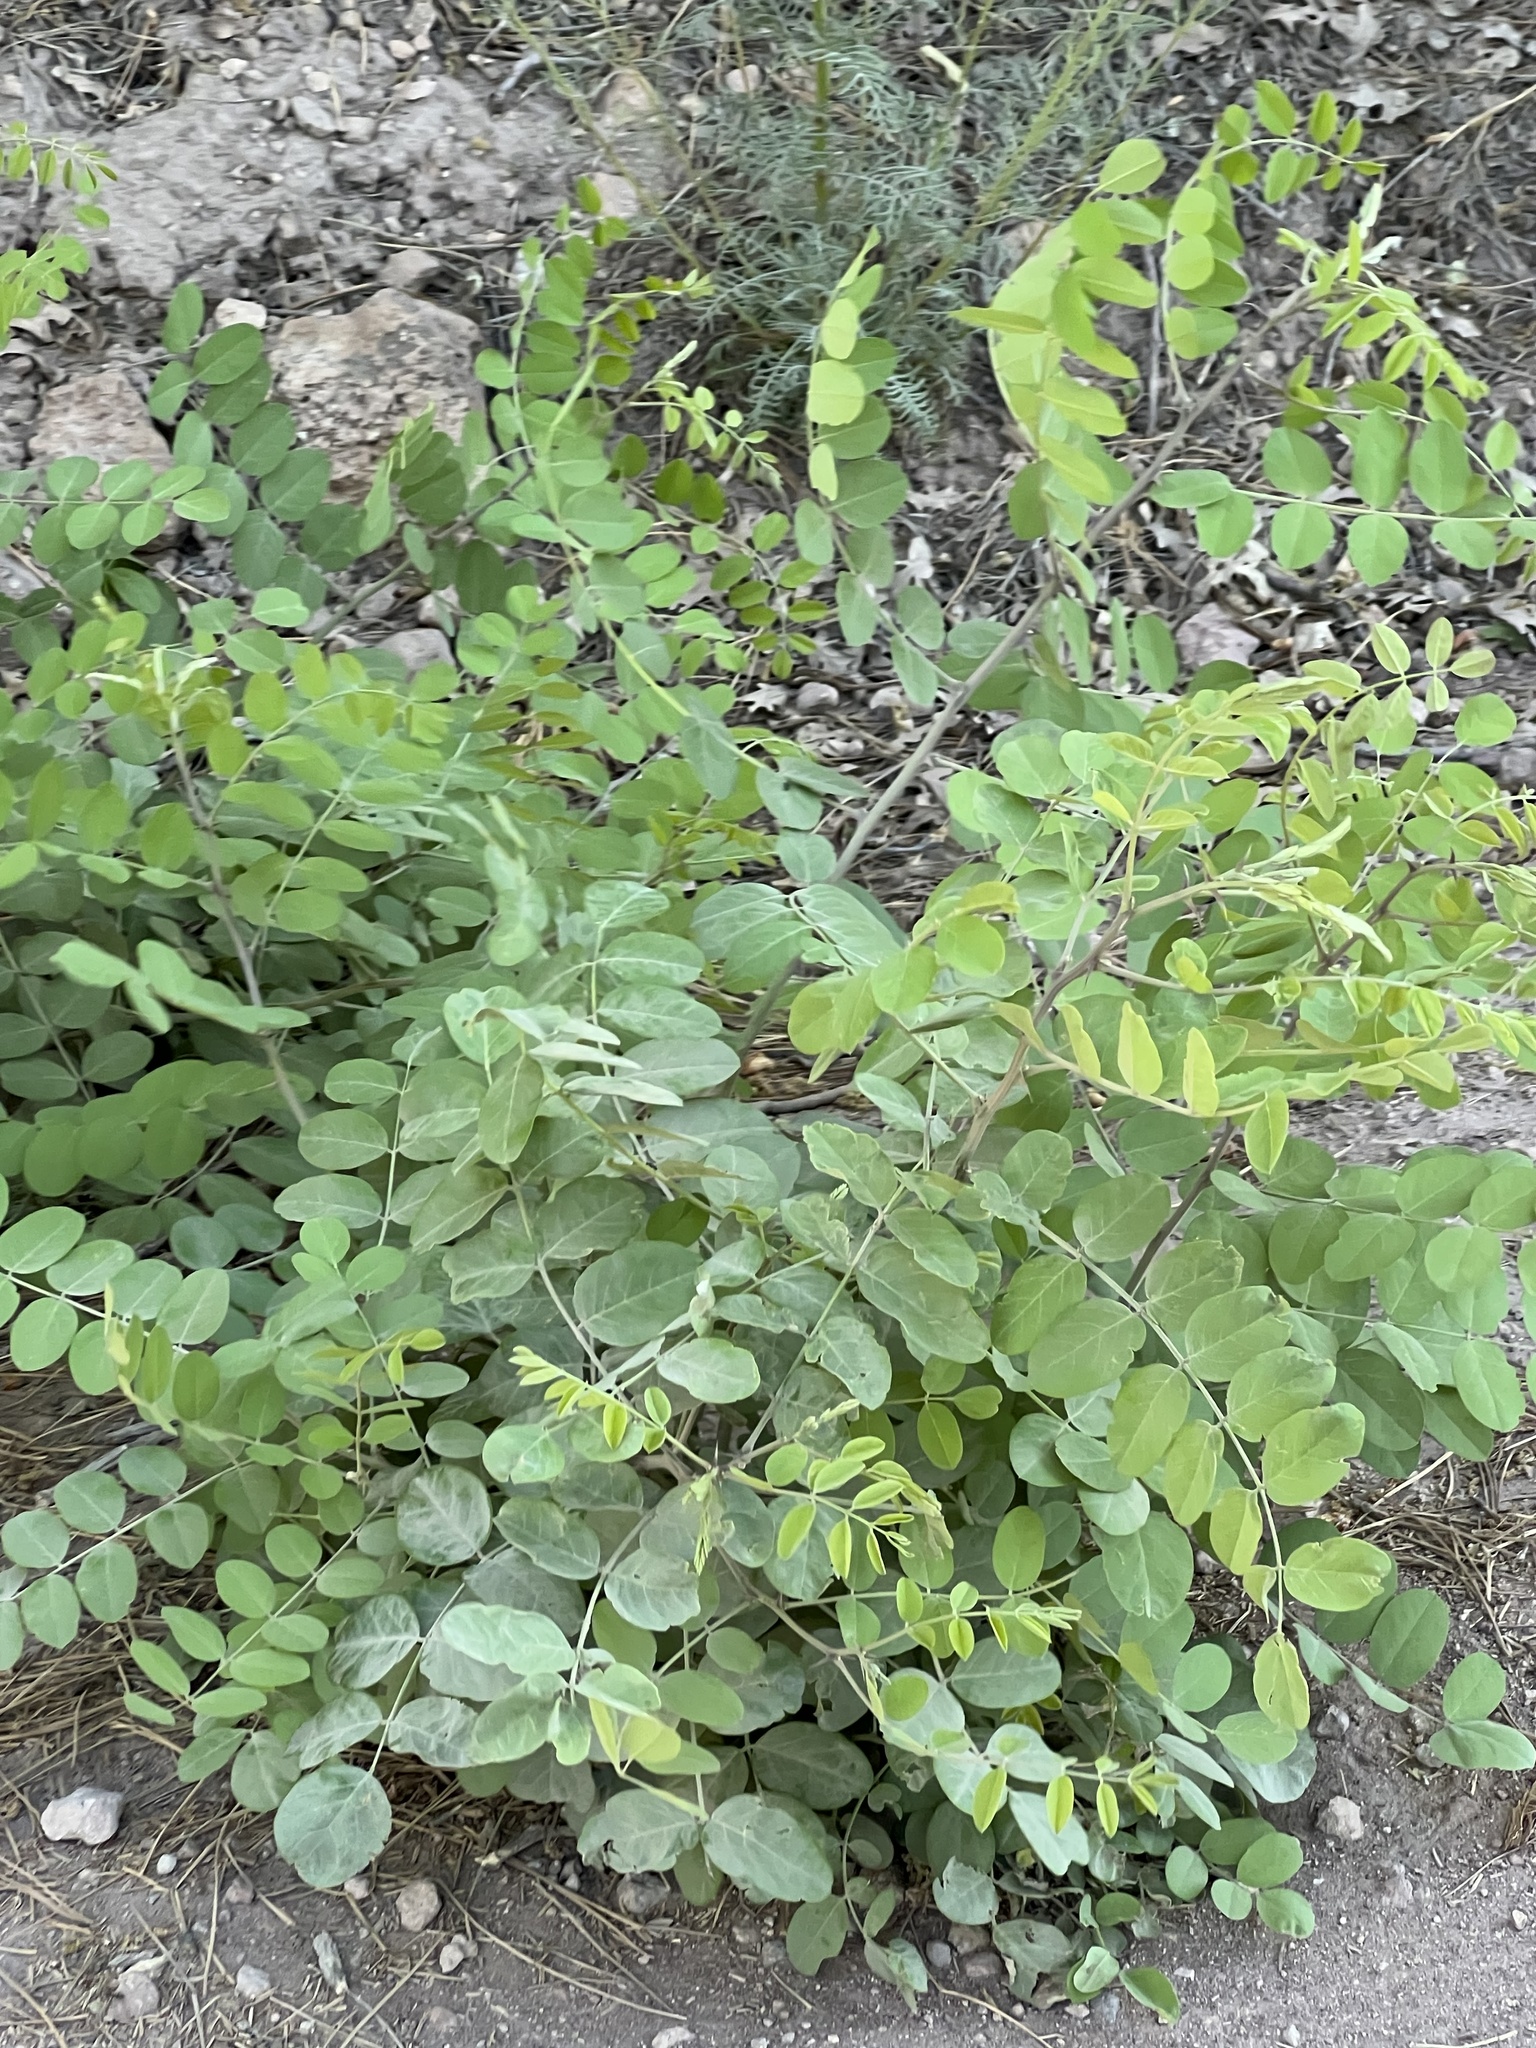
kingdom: Plantae
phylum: Tracheophyta
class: Magnoliopsida
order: Fabales
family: Fabaceae
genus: Robinia
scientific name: Robinia neomexicana
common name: New mexico locust
